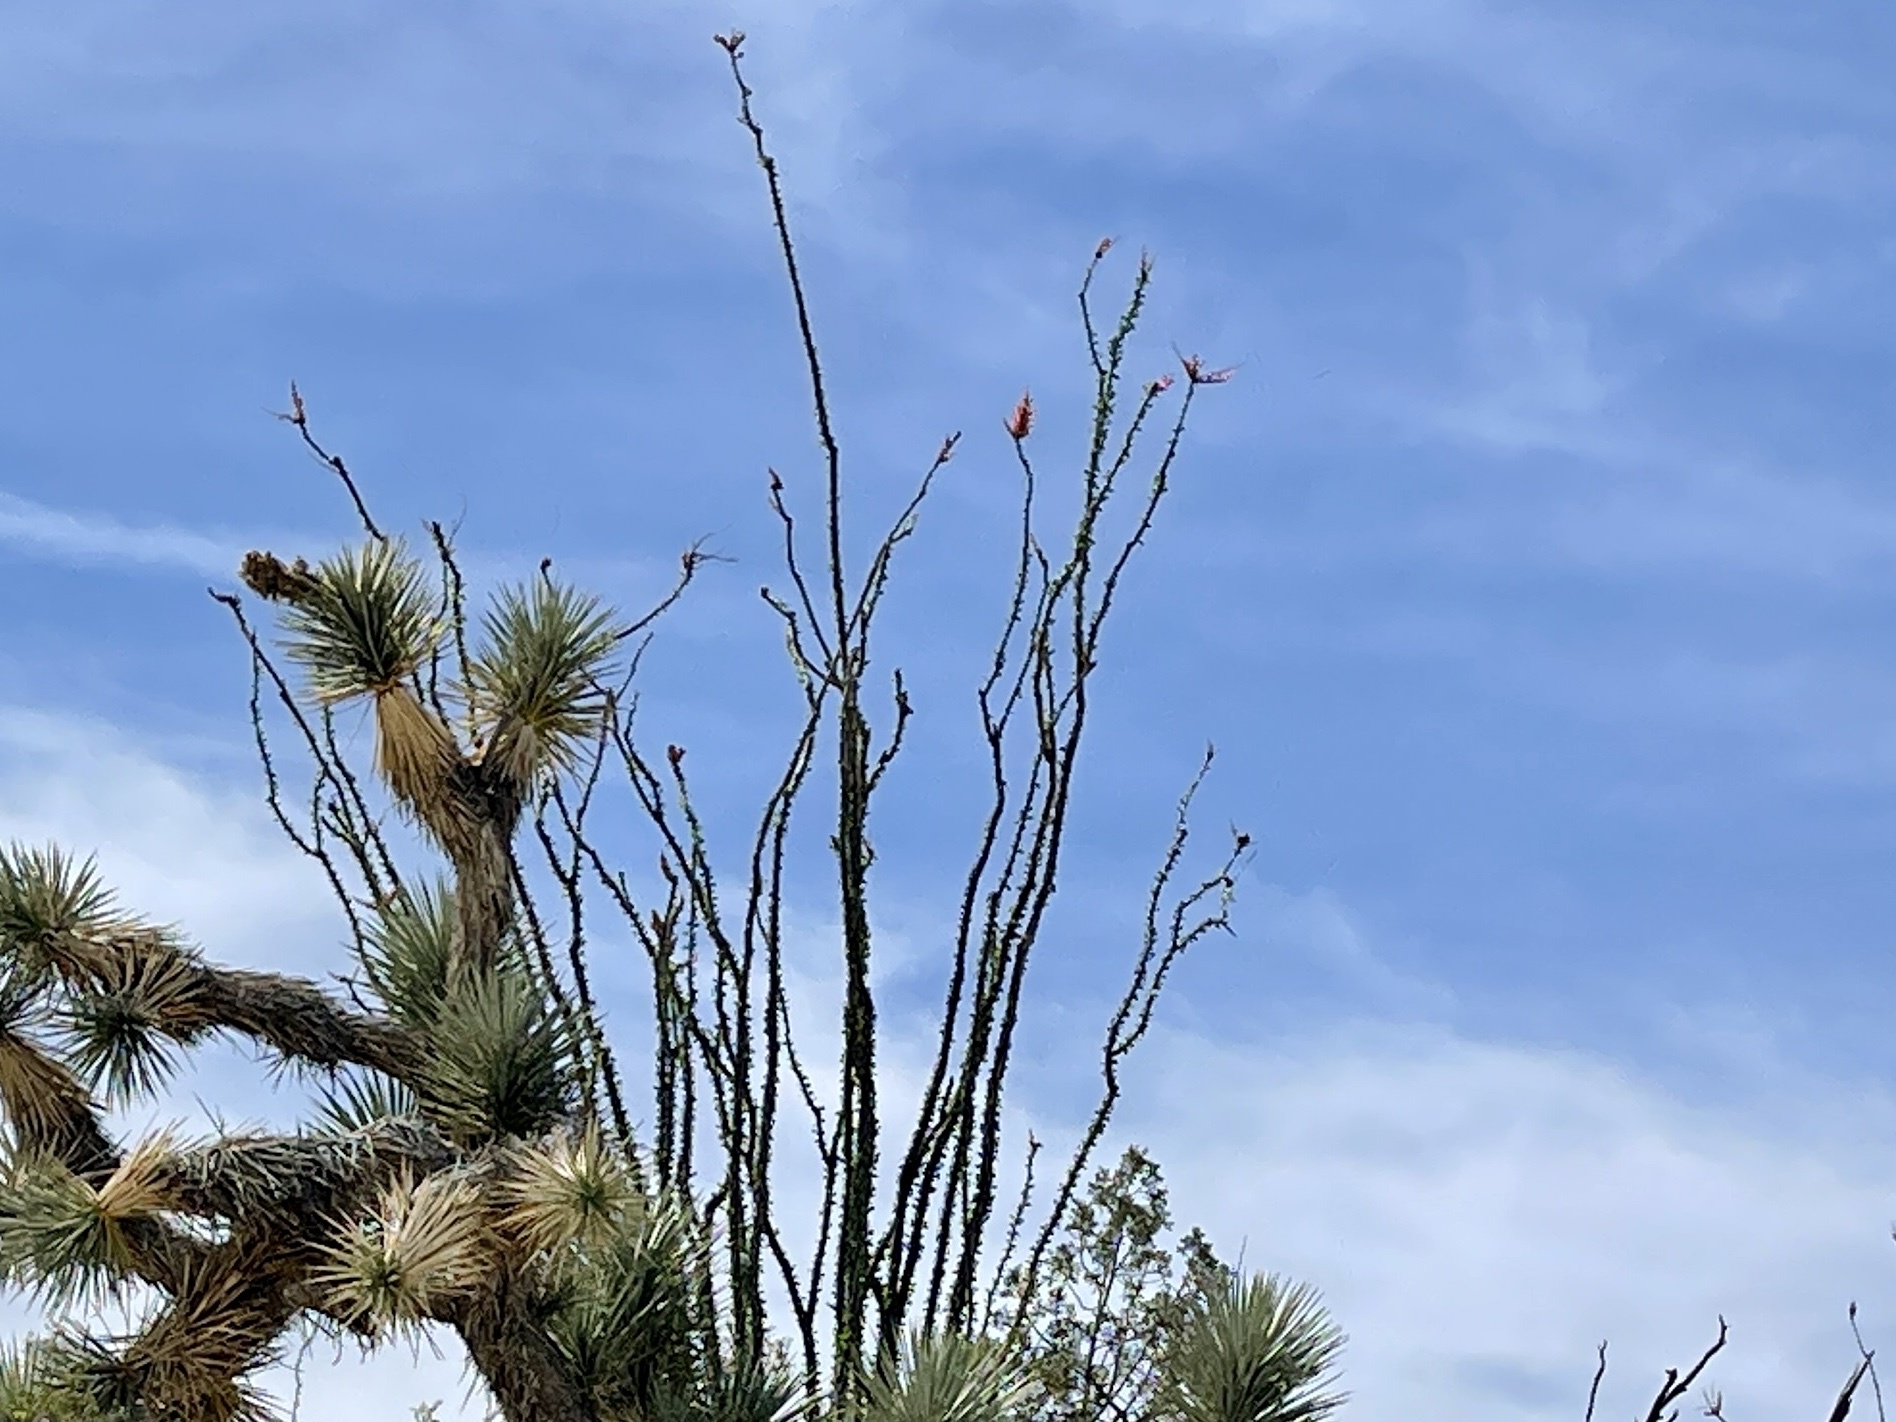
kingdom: Plantae
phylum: Tracheophyta
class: Magnoliopsida
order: Ericales
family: Fouquieriaceae
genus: Fouquieria
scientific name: Fouquieria splendens
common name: Vine-cactus
